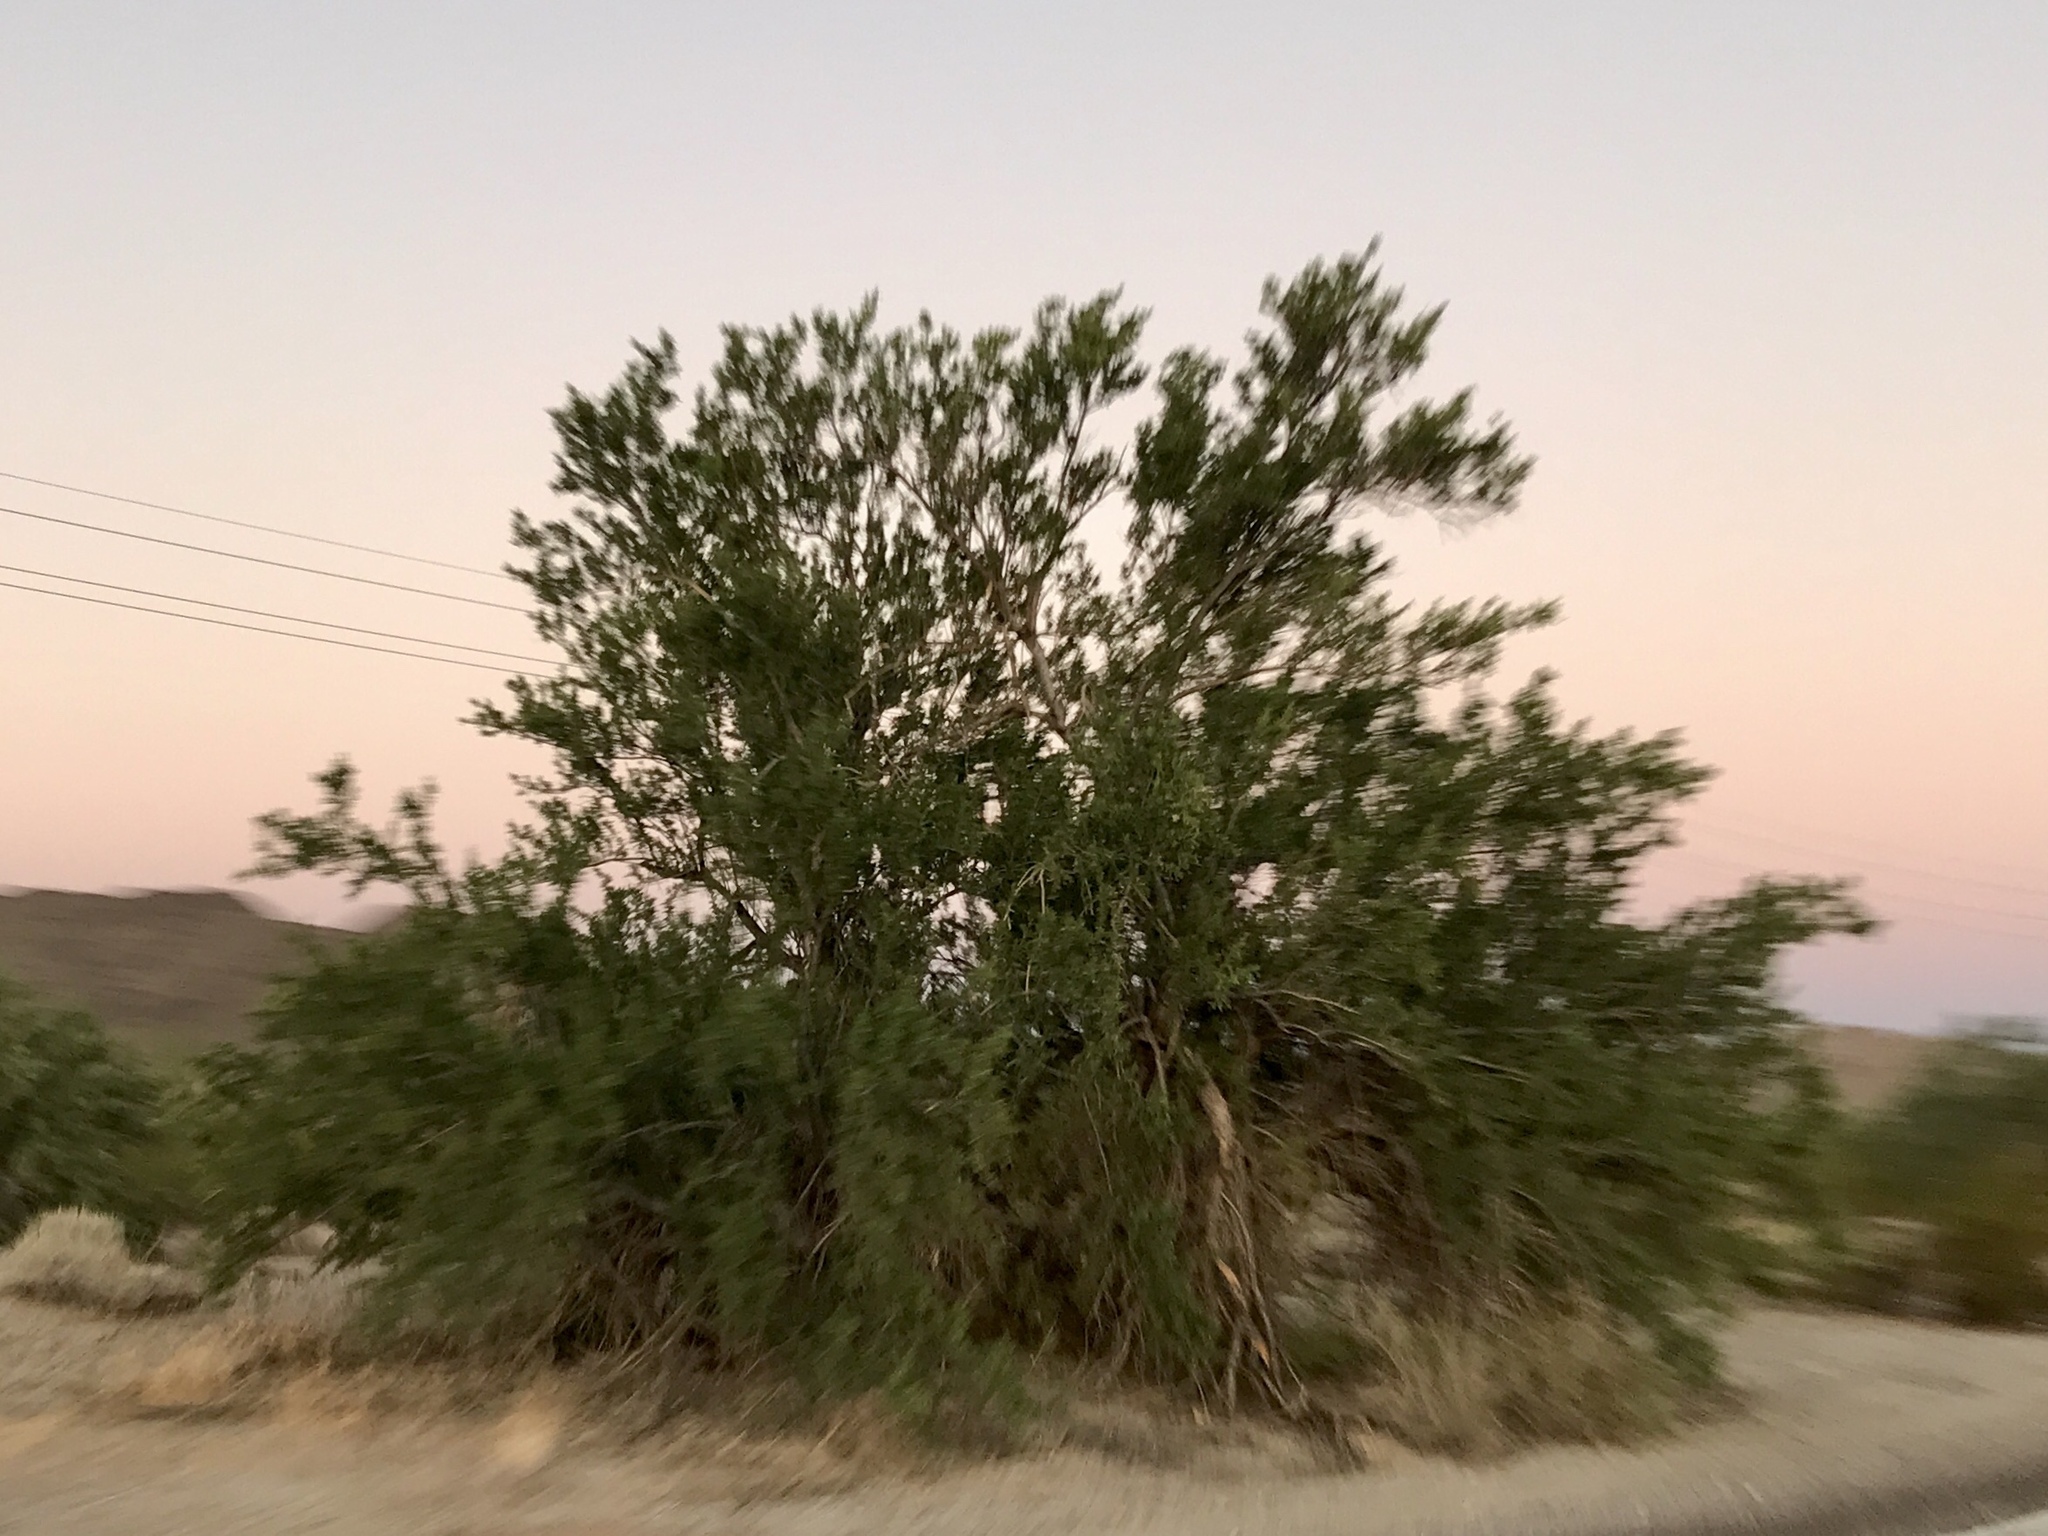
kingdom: Plantae
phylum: Tracheophyta
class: Magnoliopsida
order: Fabales
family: Fabaceae
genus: Olneya
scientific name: Olneya tesota
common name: Desert ironwood
